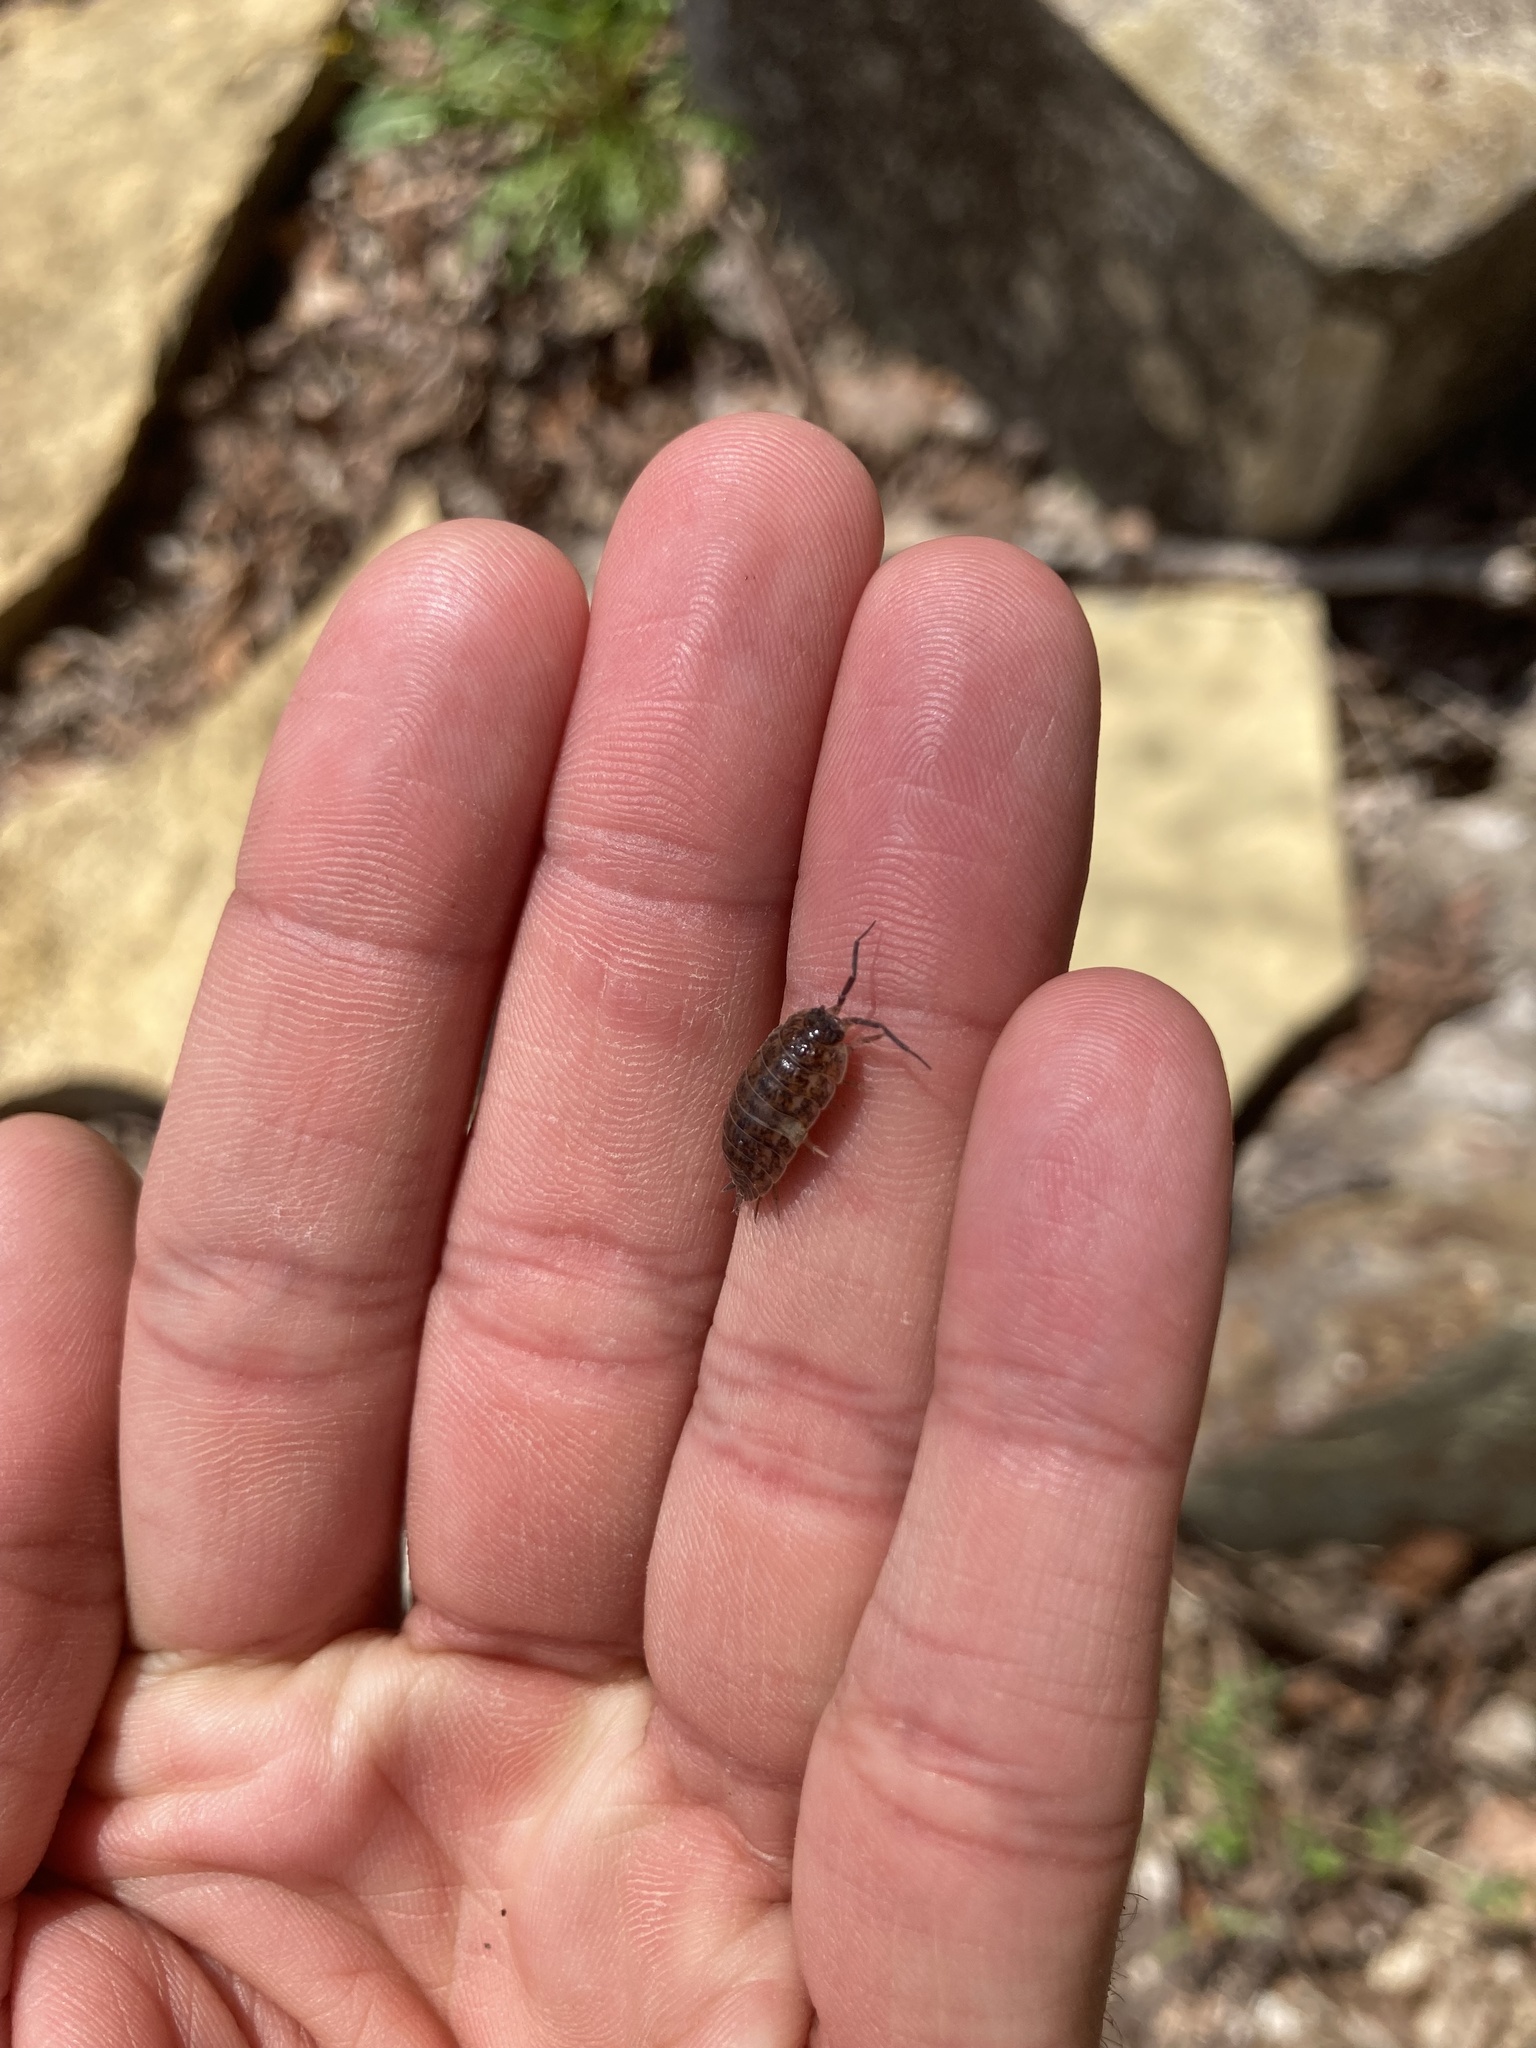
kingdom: Animalia
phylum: Arthropoda
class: Malacostraca
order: Isopoda
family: Trachelipodidae
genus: Trachelipus
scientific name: Trachelipus rathkii
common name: Isopod
